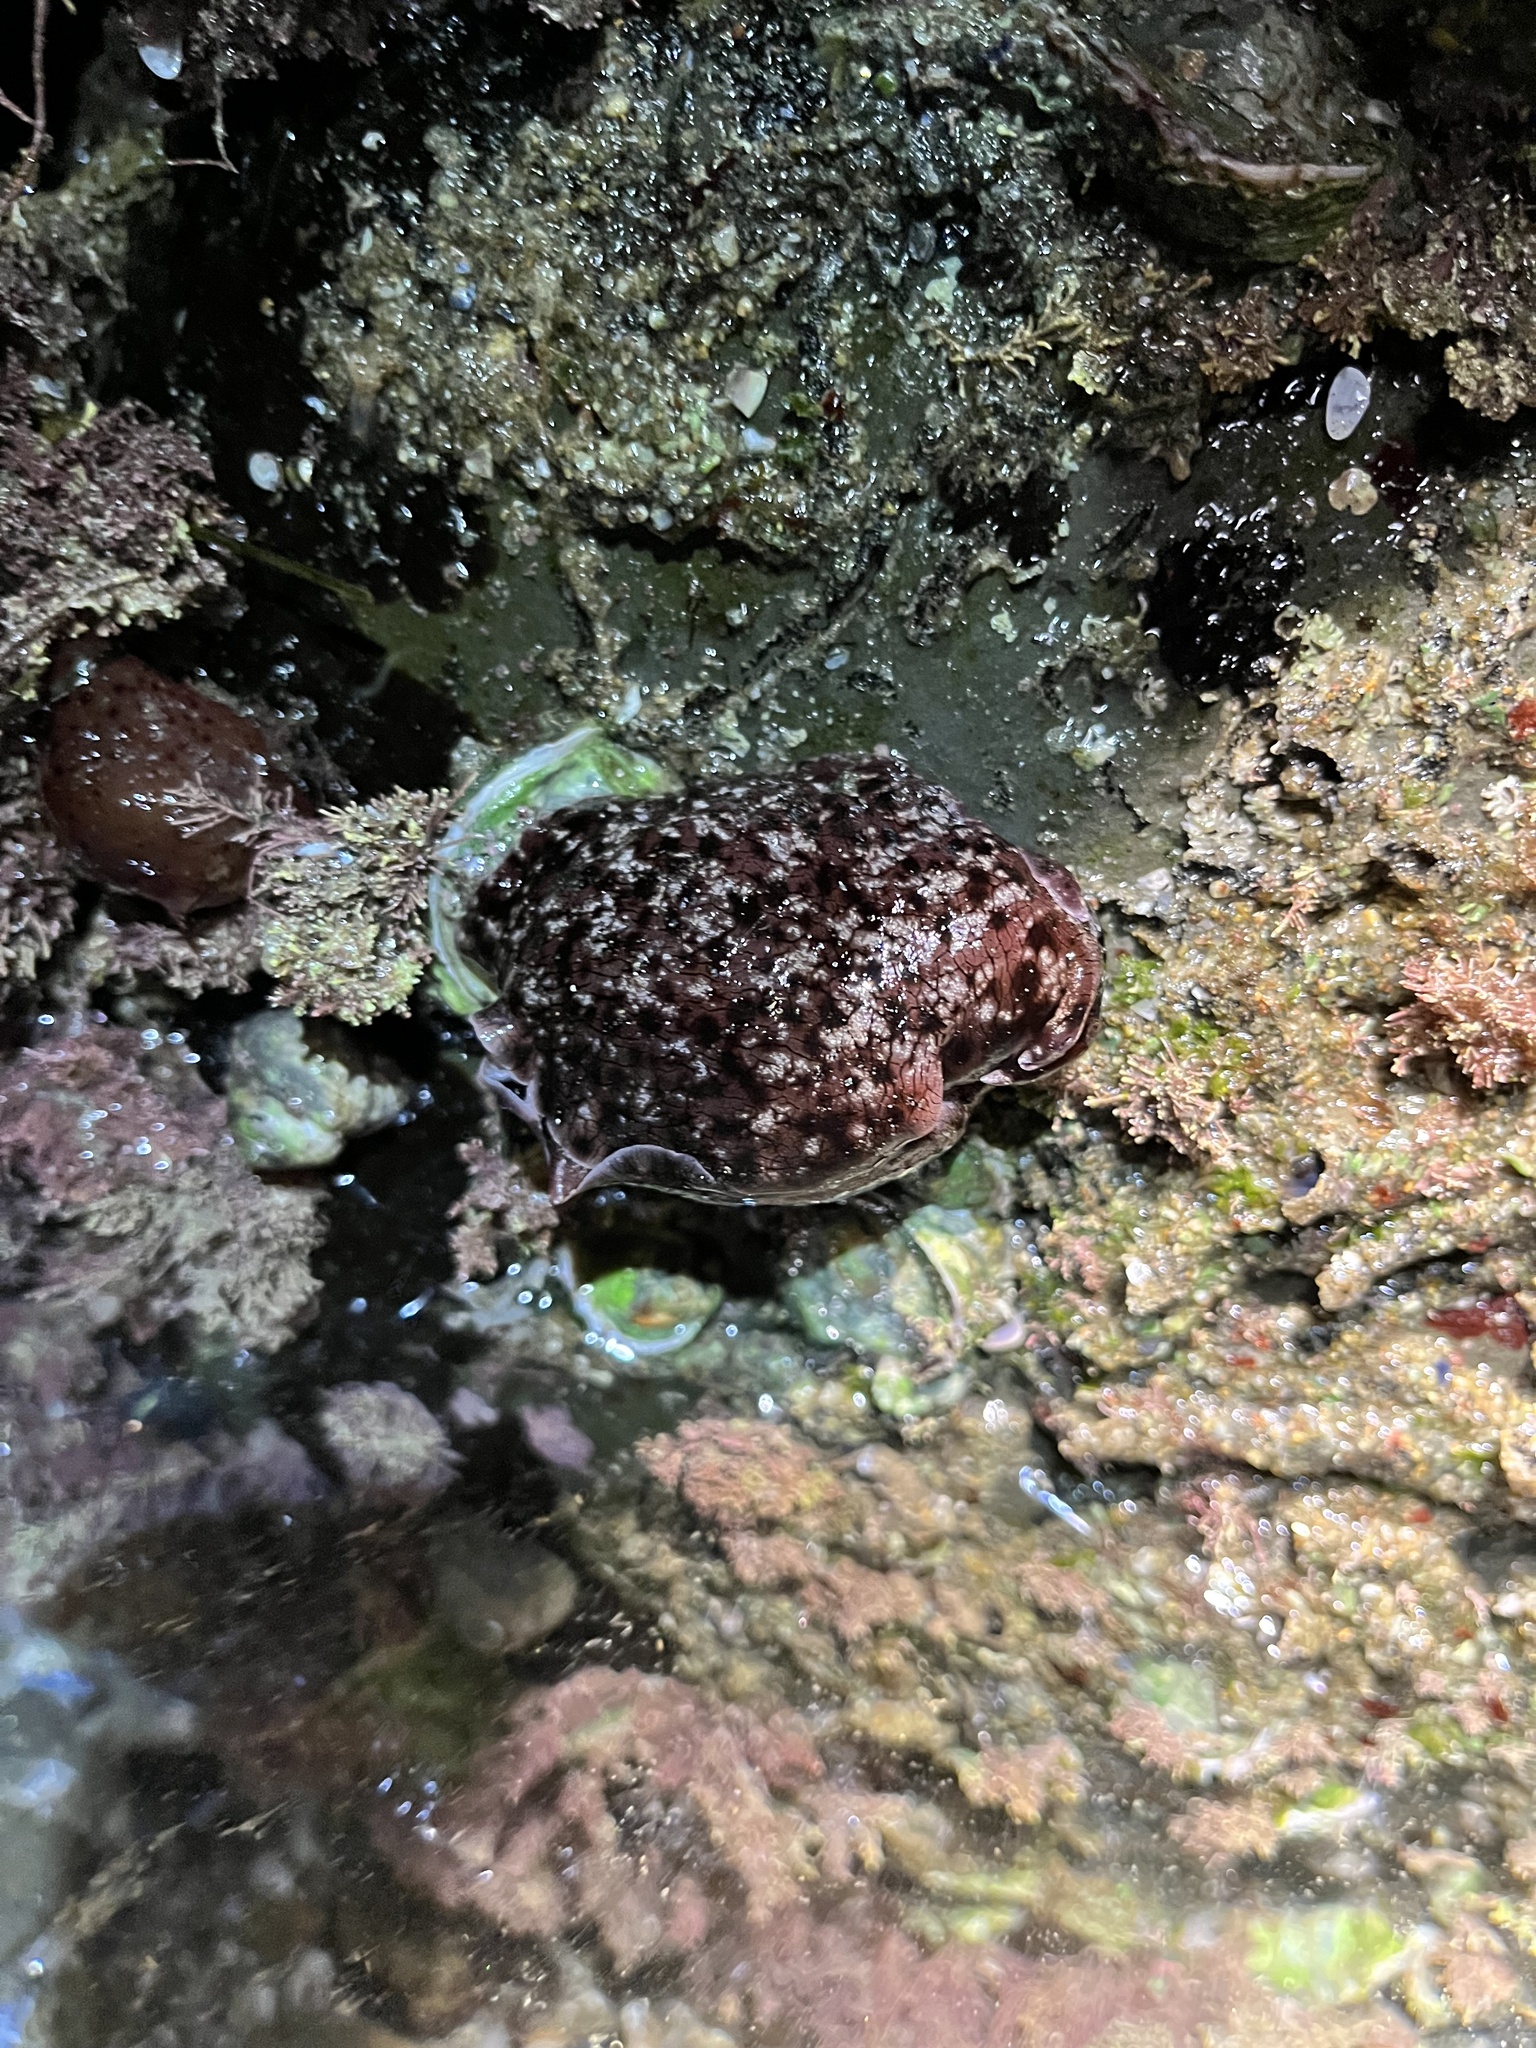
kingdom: Animalia
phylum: Mollusca
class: Gastropoda
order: Aplysiida
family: Aplysiidae
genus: Aplysia
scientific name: Aplysia californica
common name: California seahare
